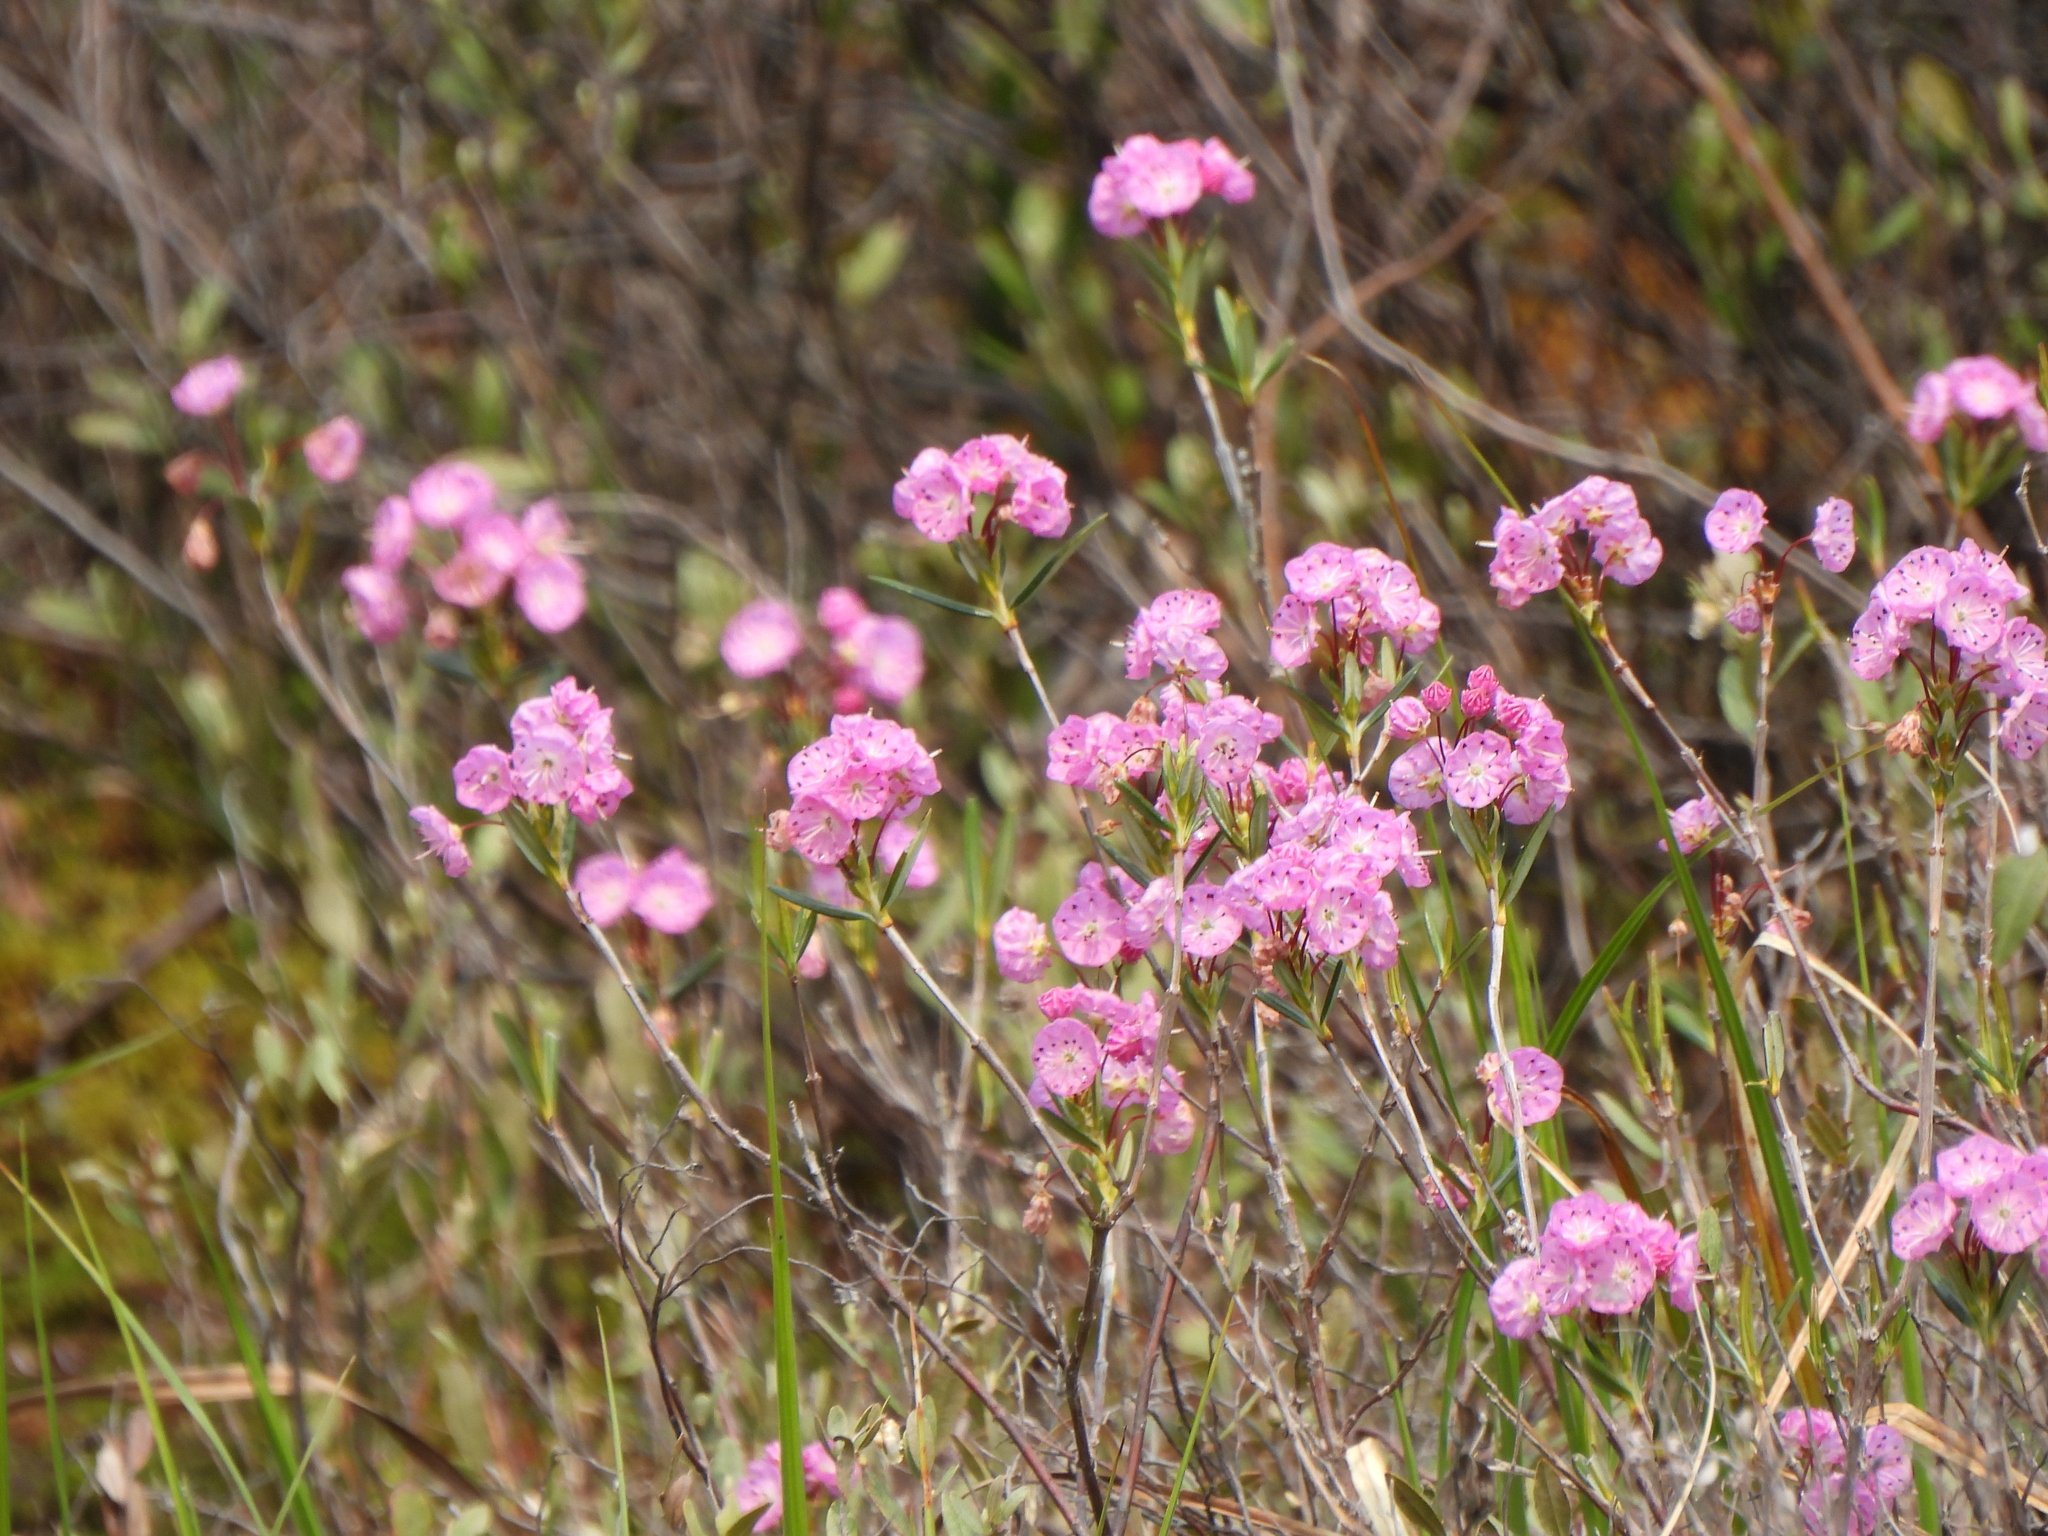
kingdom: Plantae
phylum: Tracheophyta
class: Magnoliopsida
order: Ericales
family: Ericaceae
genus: Kalmia
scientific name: Kalmia polifolia
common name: Bog-laurel
